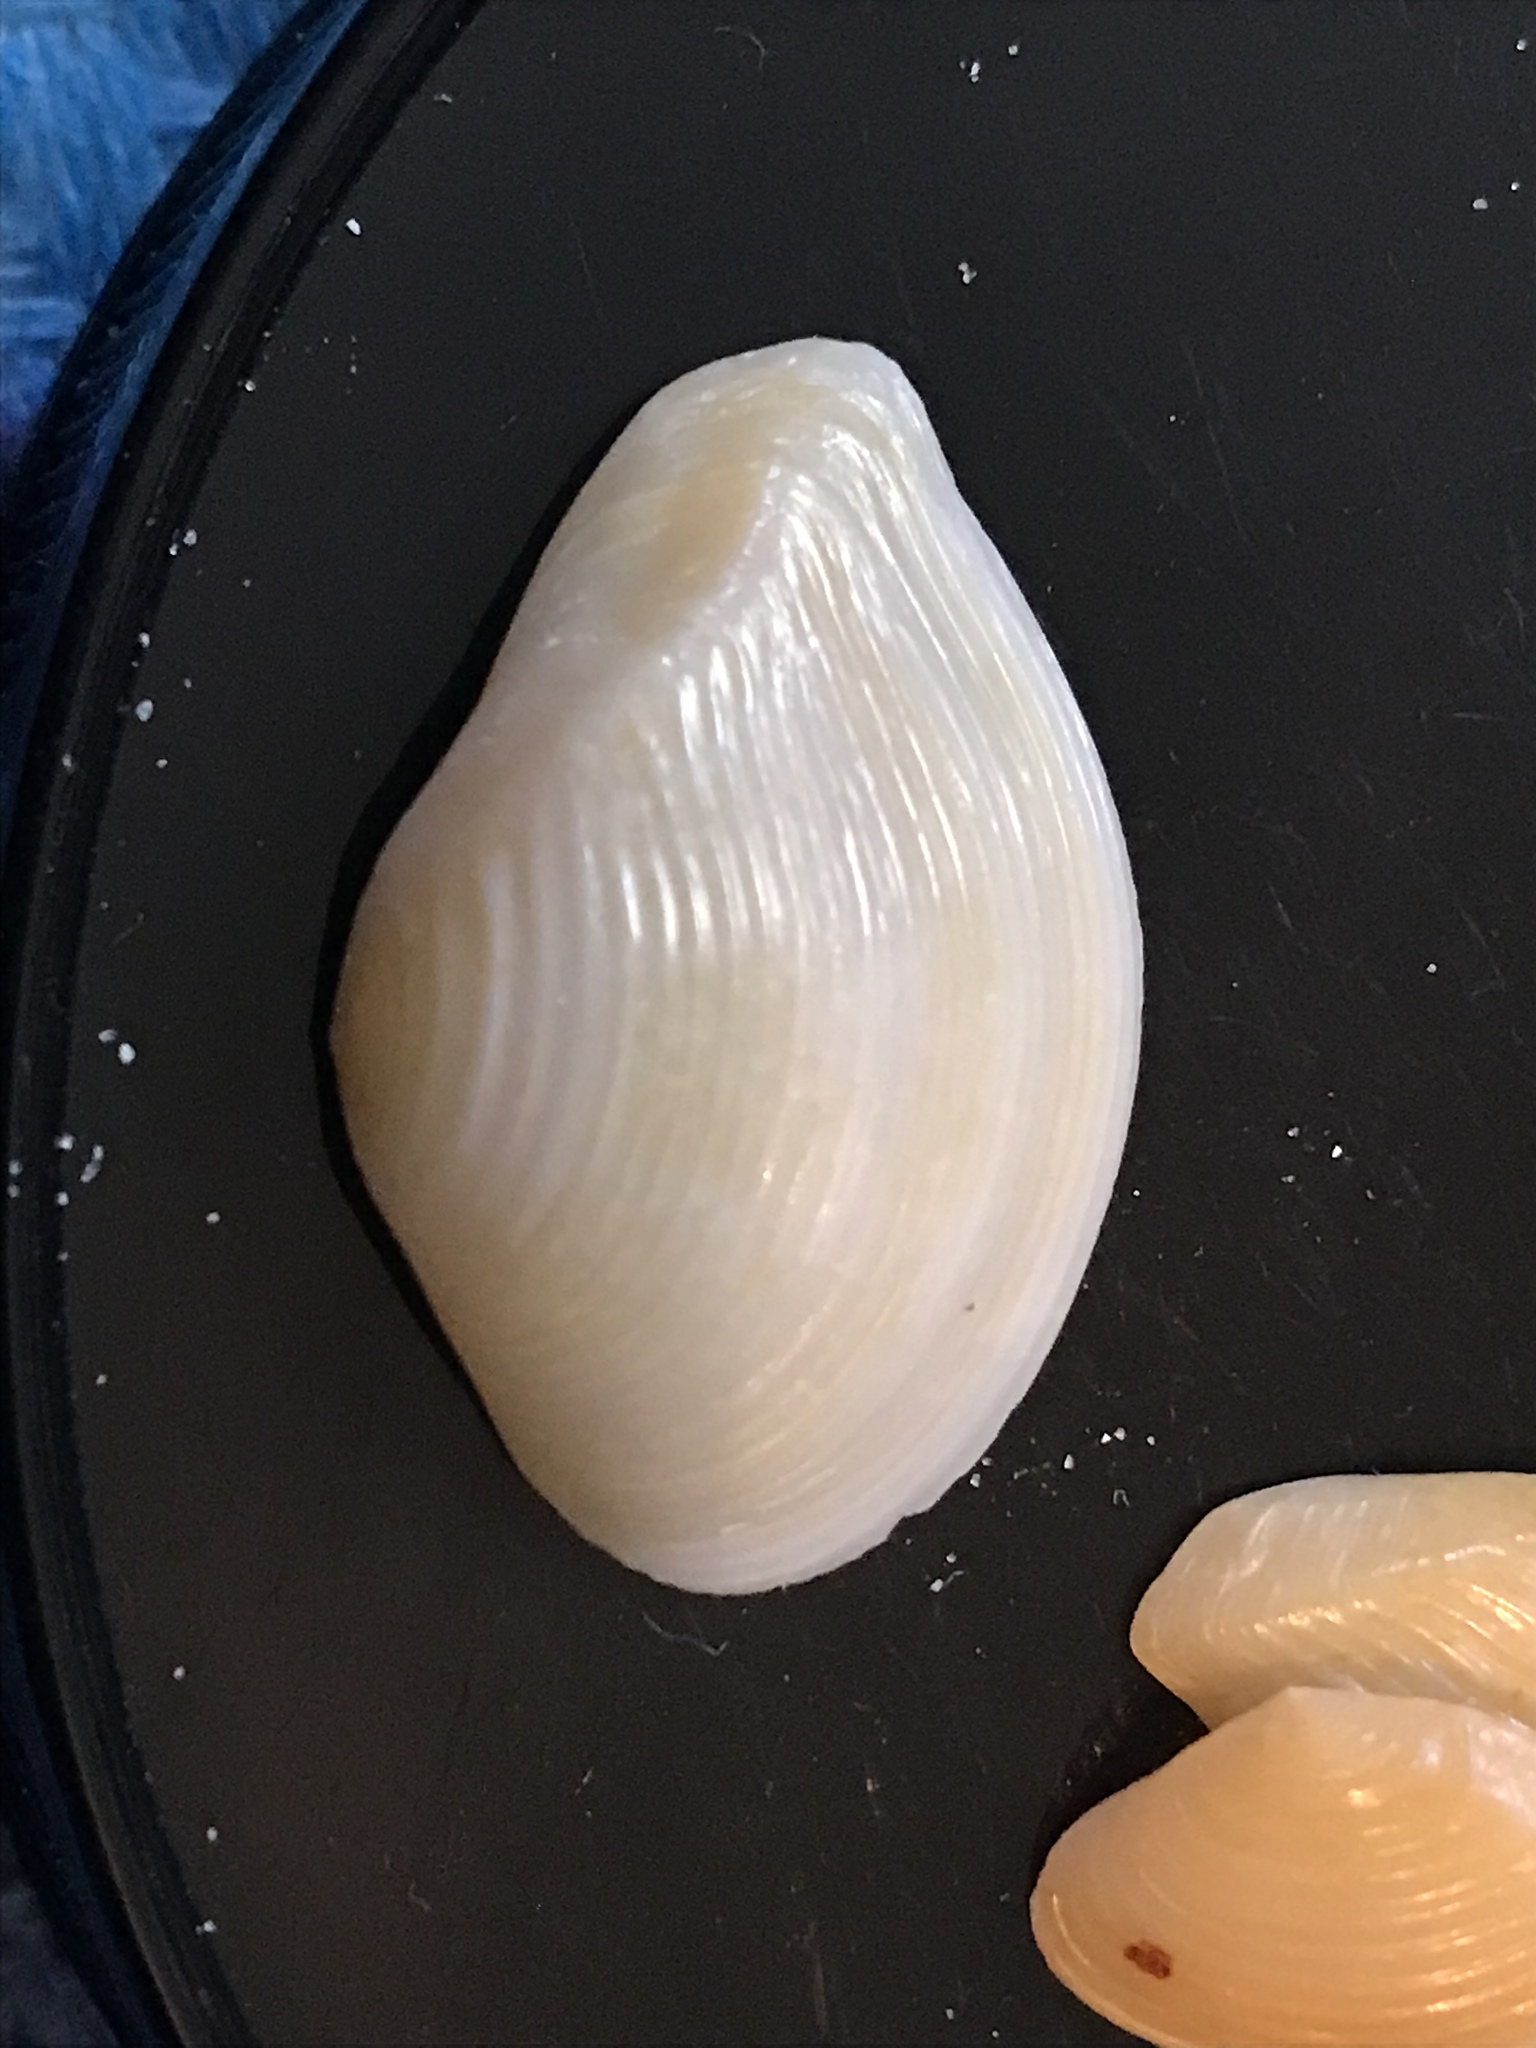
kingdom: Animalia
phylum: Mollusca
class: Bivalvia
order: Carditida
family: Crassatellidae
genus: Kalolophus
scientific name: Kalolophus speciosus
